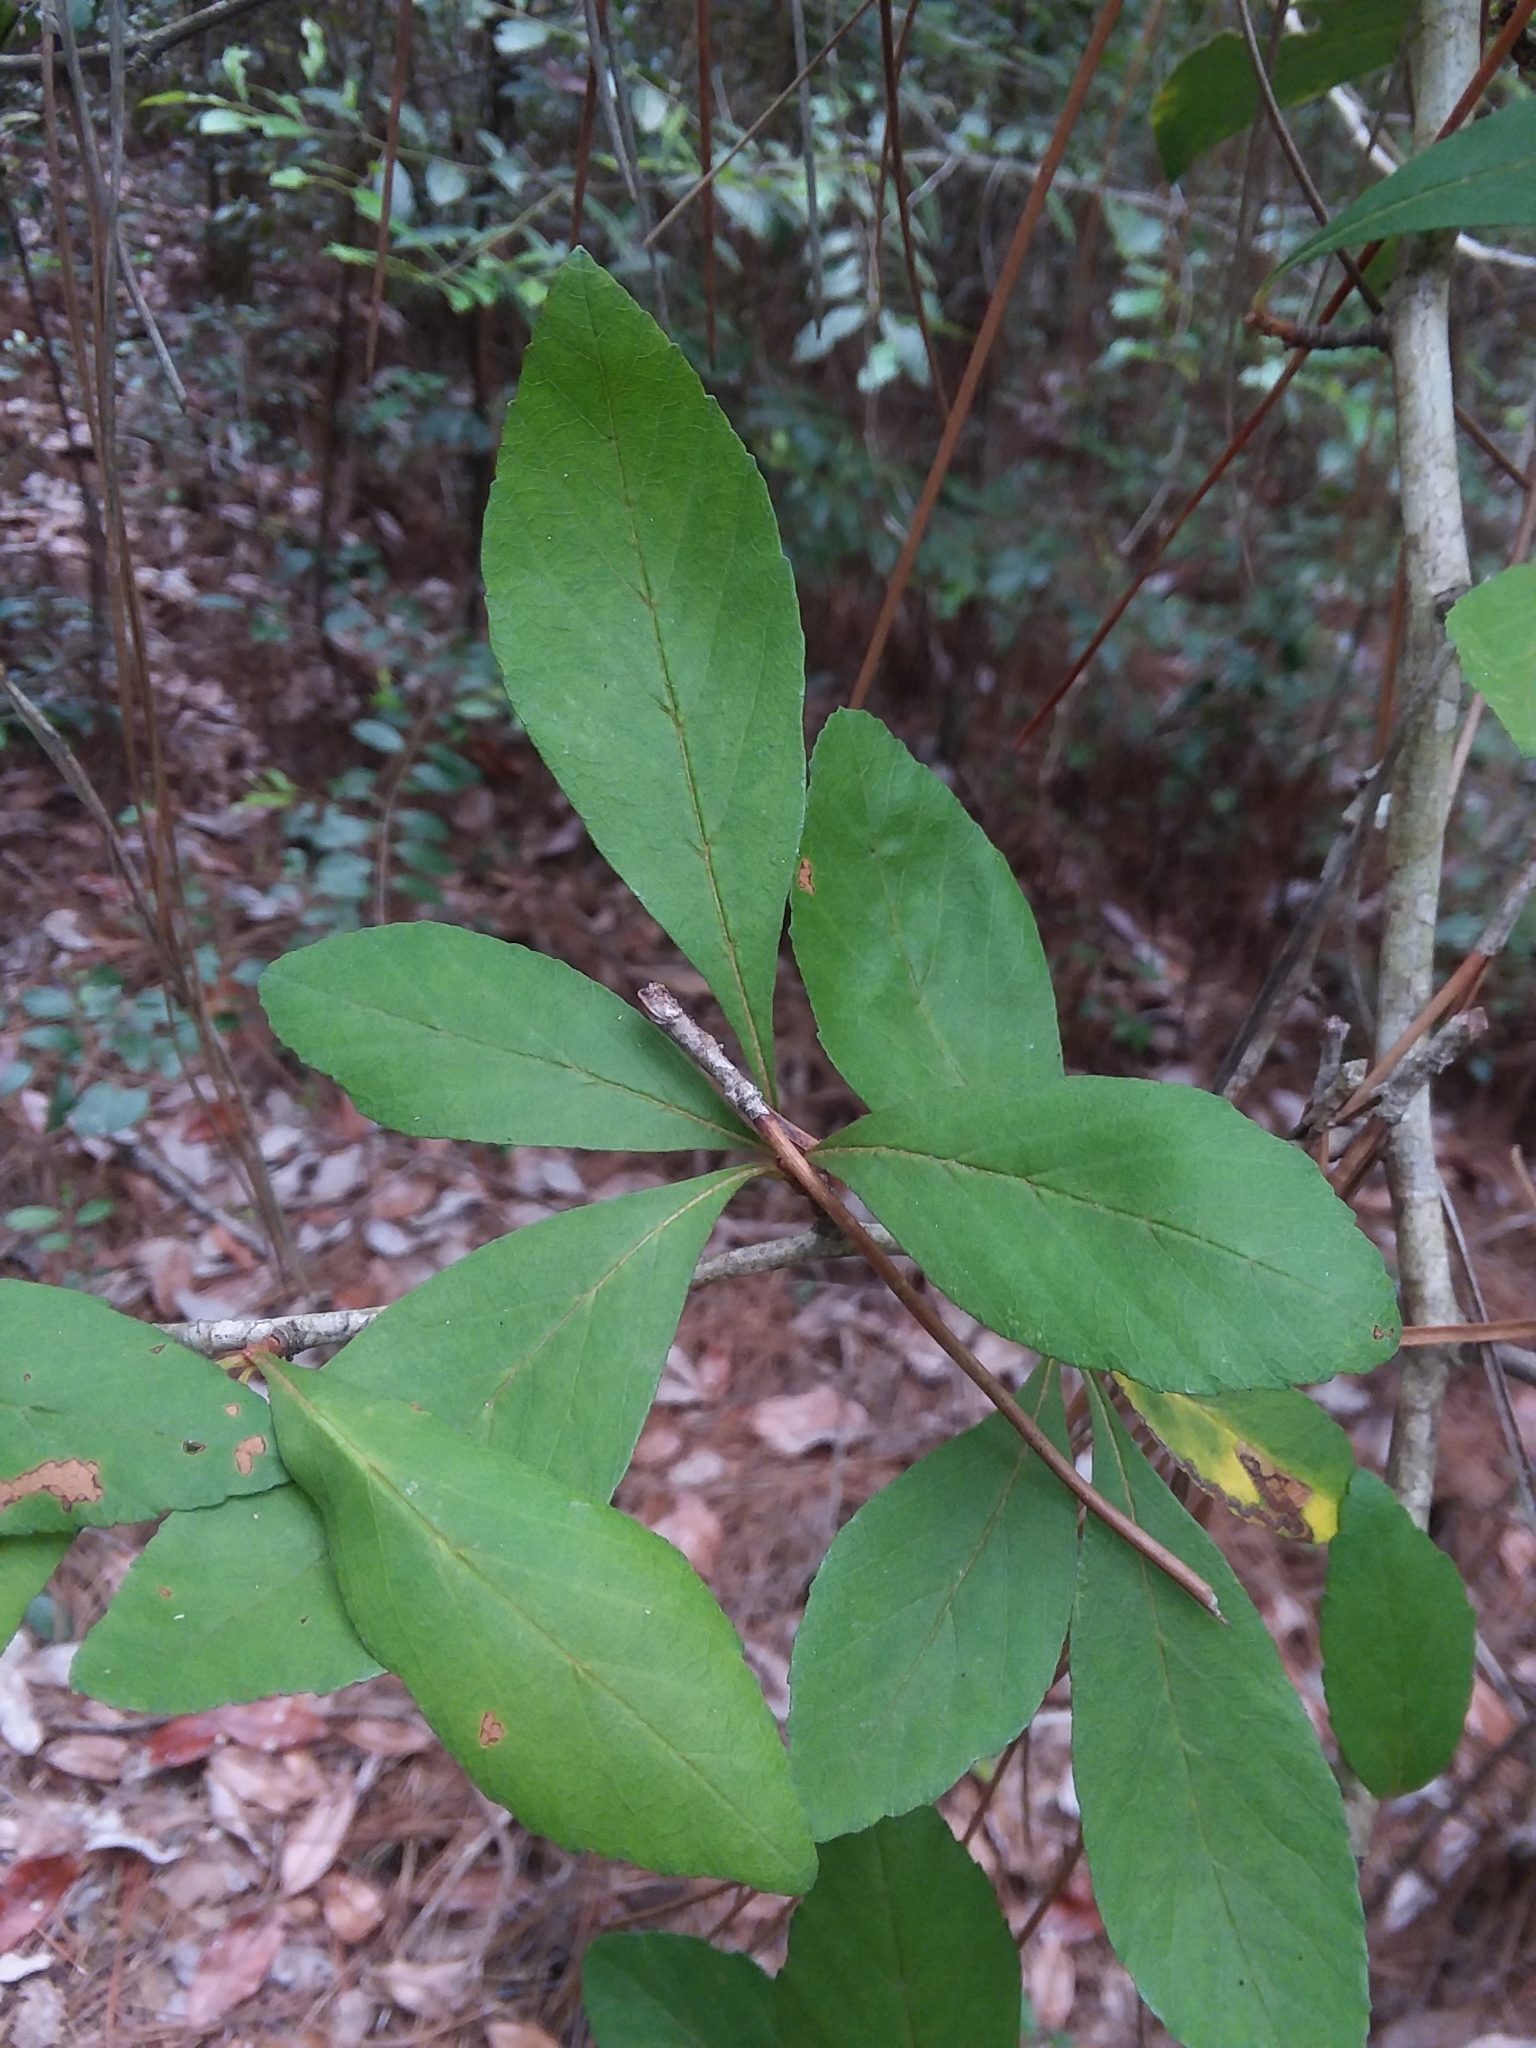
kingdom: Plantae
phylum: Tracheophyta
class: Magnoliopsida
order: Rosales
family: Rosaceae
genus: Crataegus
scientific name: Crataegus opaca
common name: Apple haw
